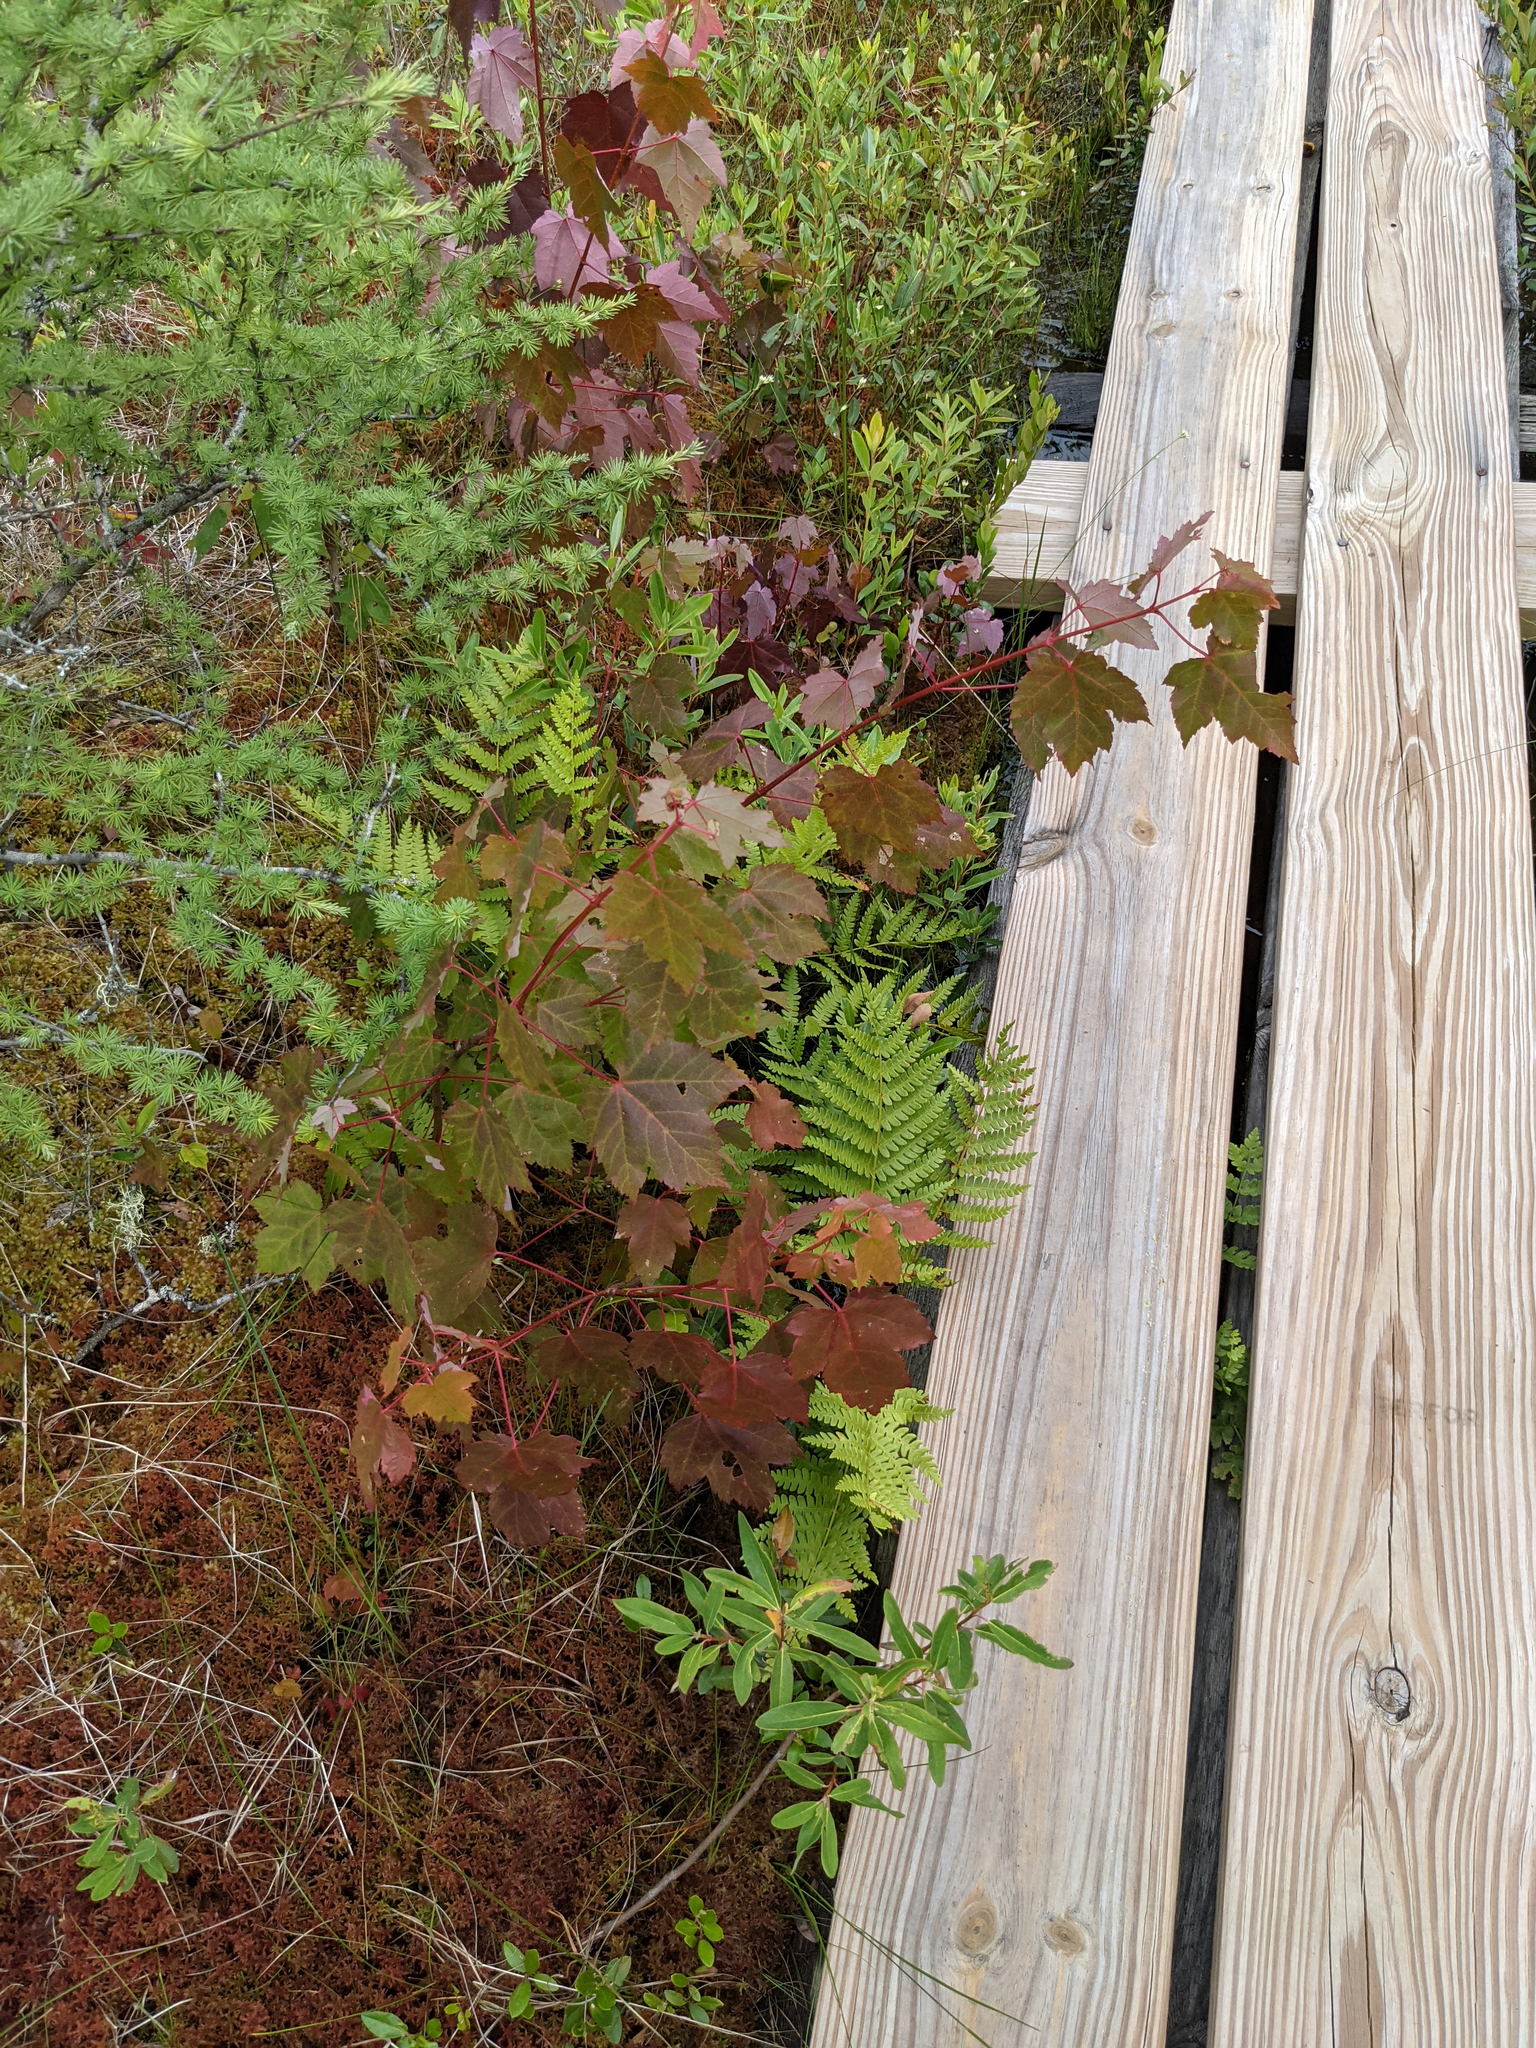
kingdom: Plantae
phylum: Tracheophyta
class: Magnoliopsida
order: Sapindales
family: Sapindaceae
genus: Acer
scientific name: Acer rubrum
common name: Red maple
